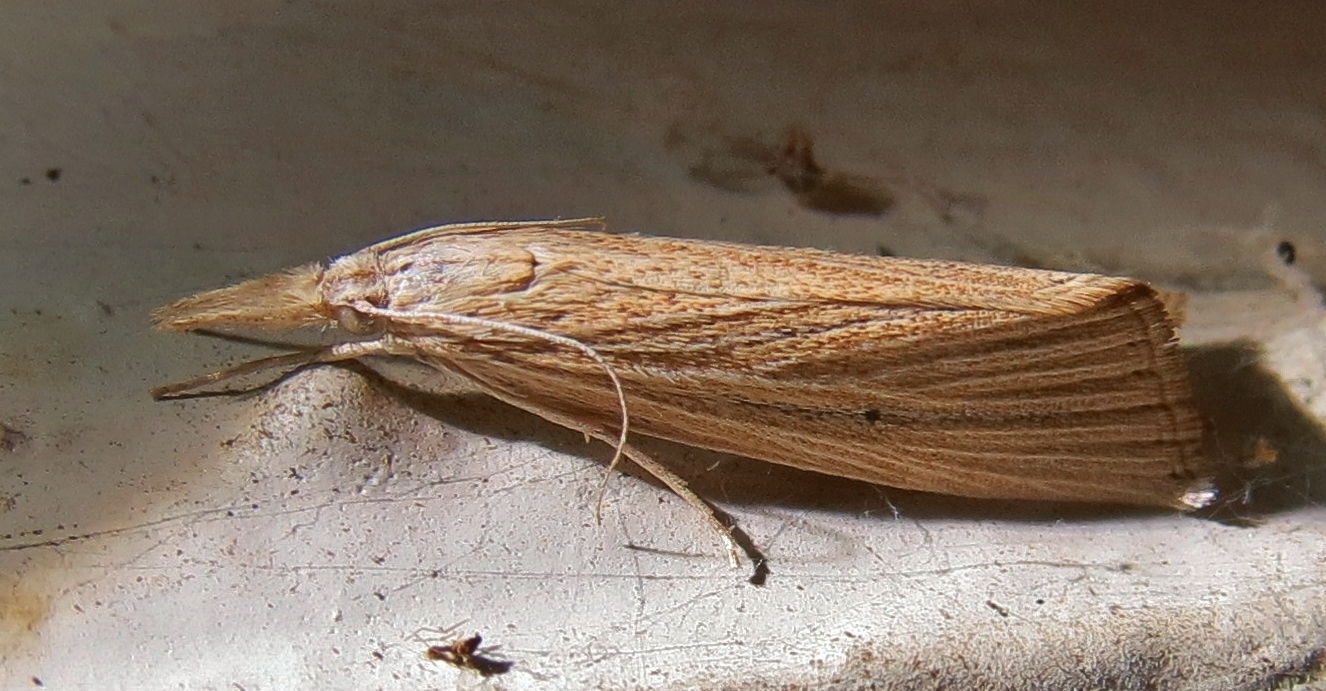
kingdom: Animalia
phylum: Arthropoda
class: Insecta
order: Lepidoptera
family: Crambidae
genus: Diatraea
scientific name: Diatraea evanescens
